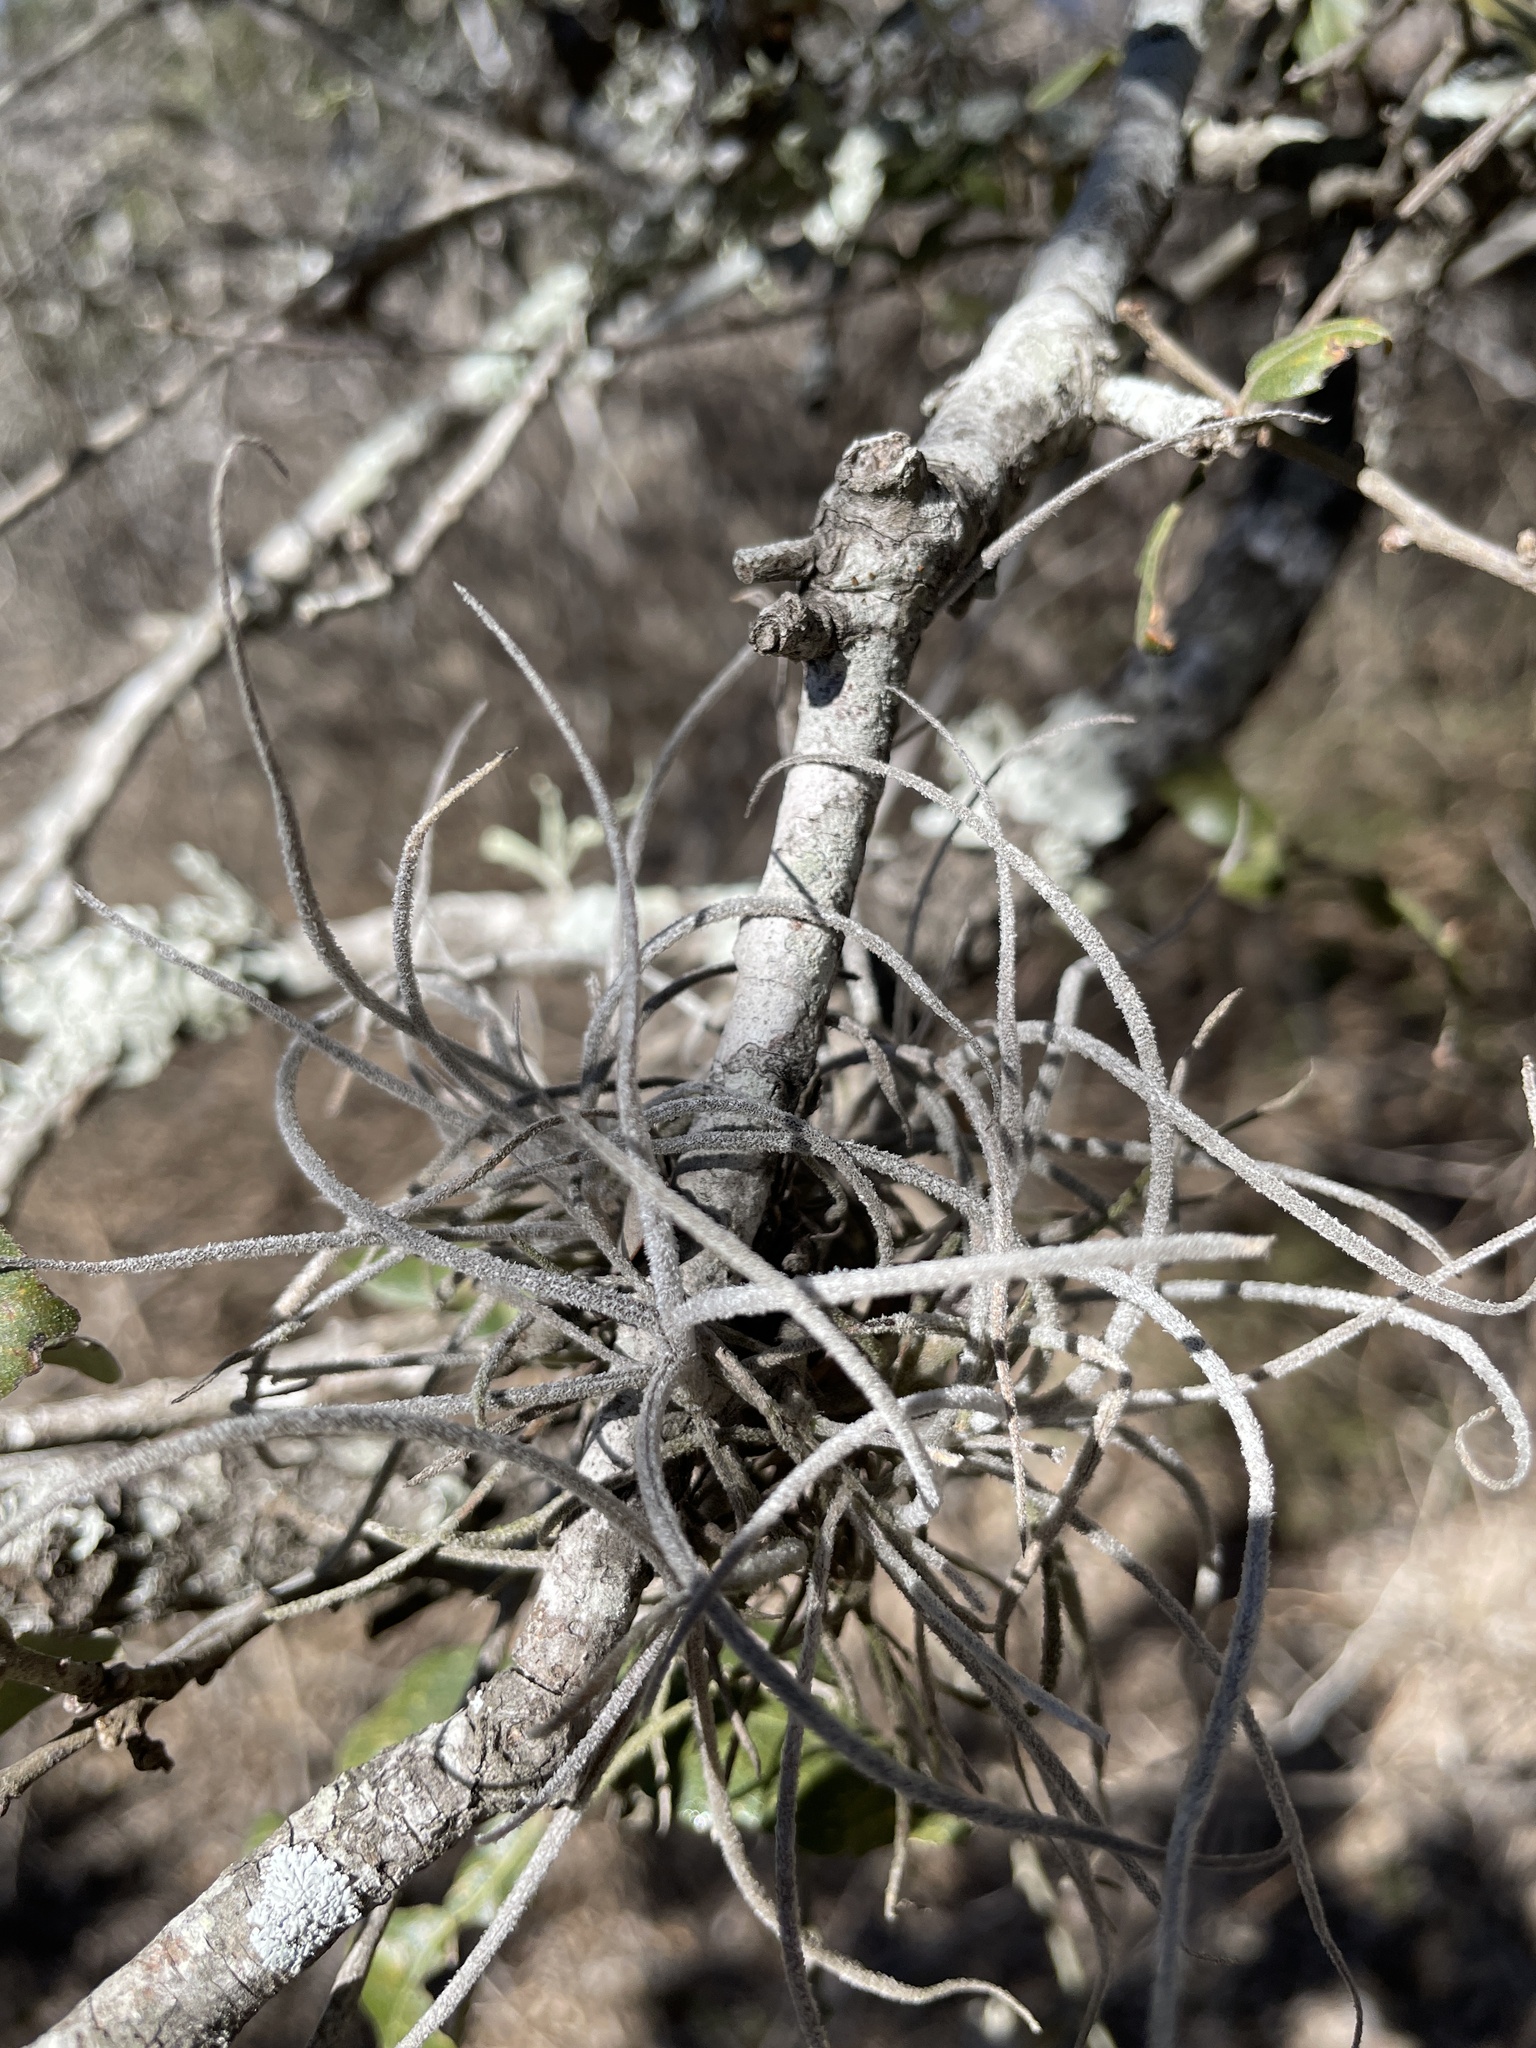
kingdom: Plantae
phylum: Tracheophyta
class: Liliopsida
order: Poales
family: Bromeliaceae
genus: Tillandsia
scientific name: Tillandsia recurvata
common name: Small ballmoss
